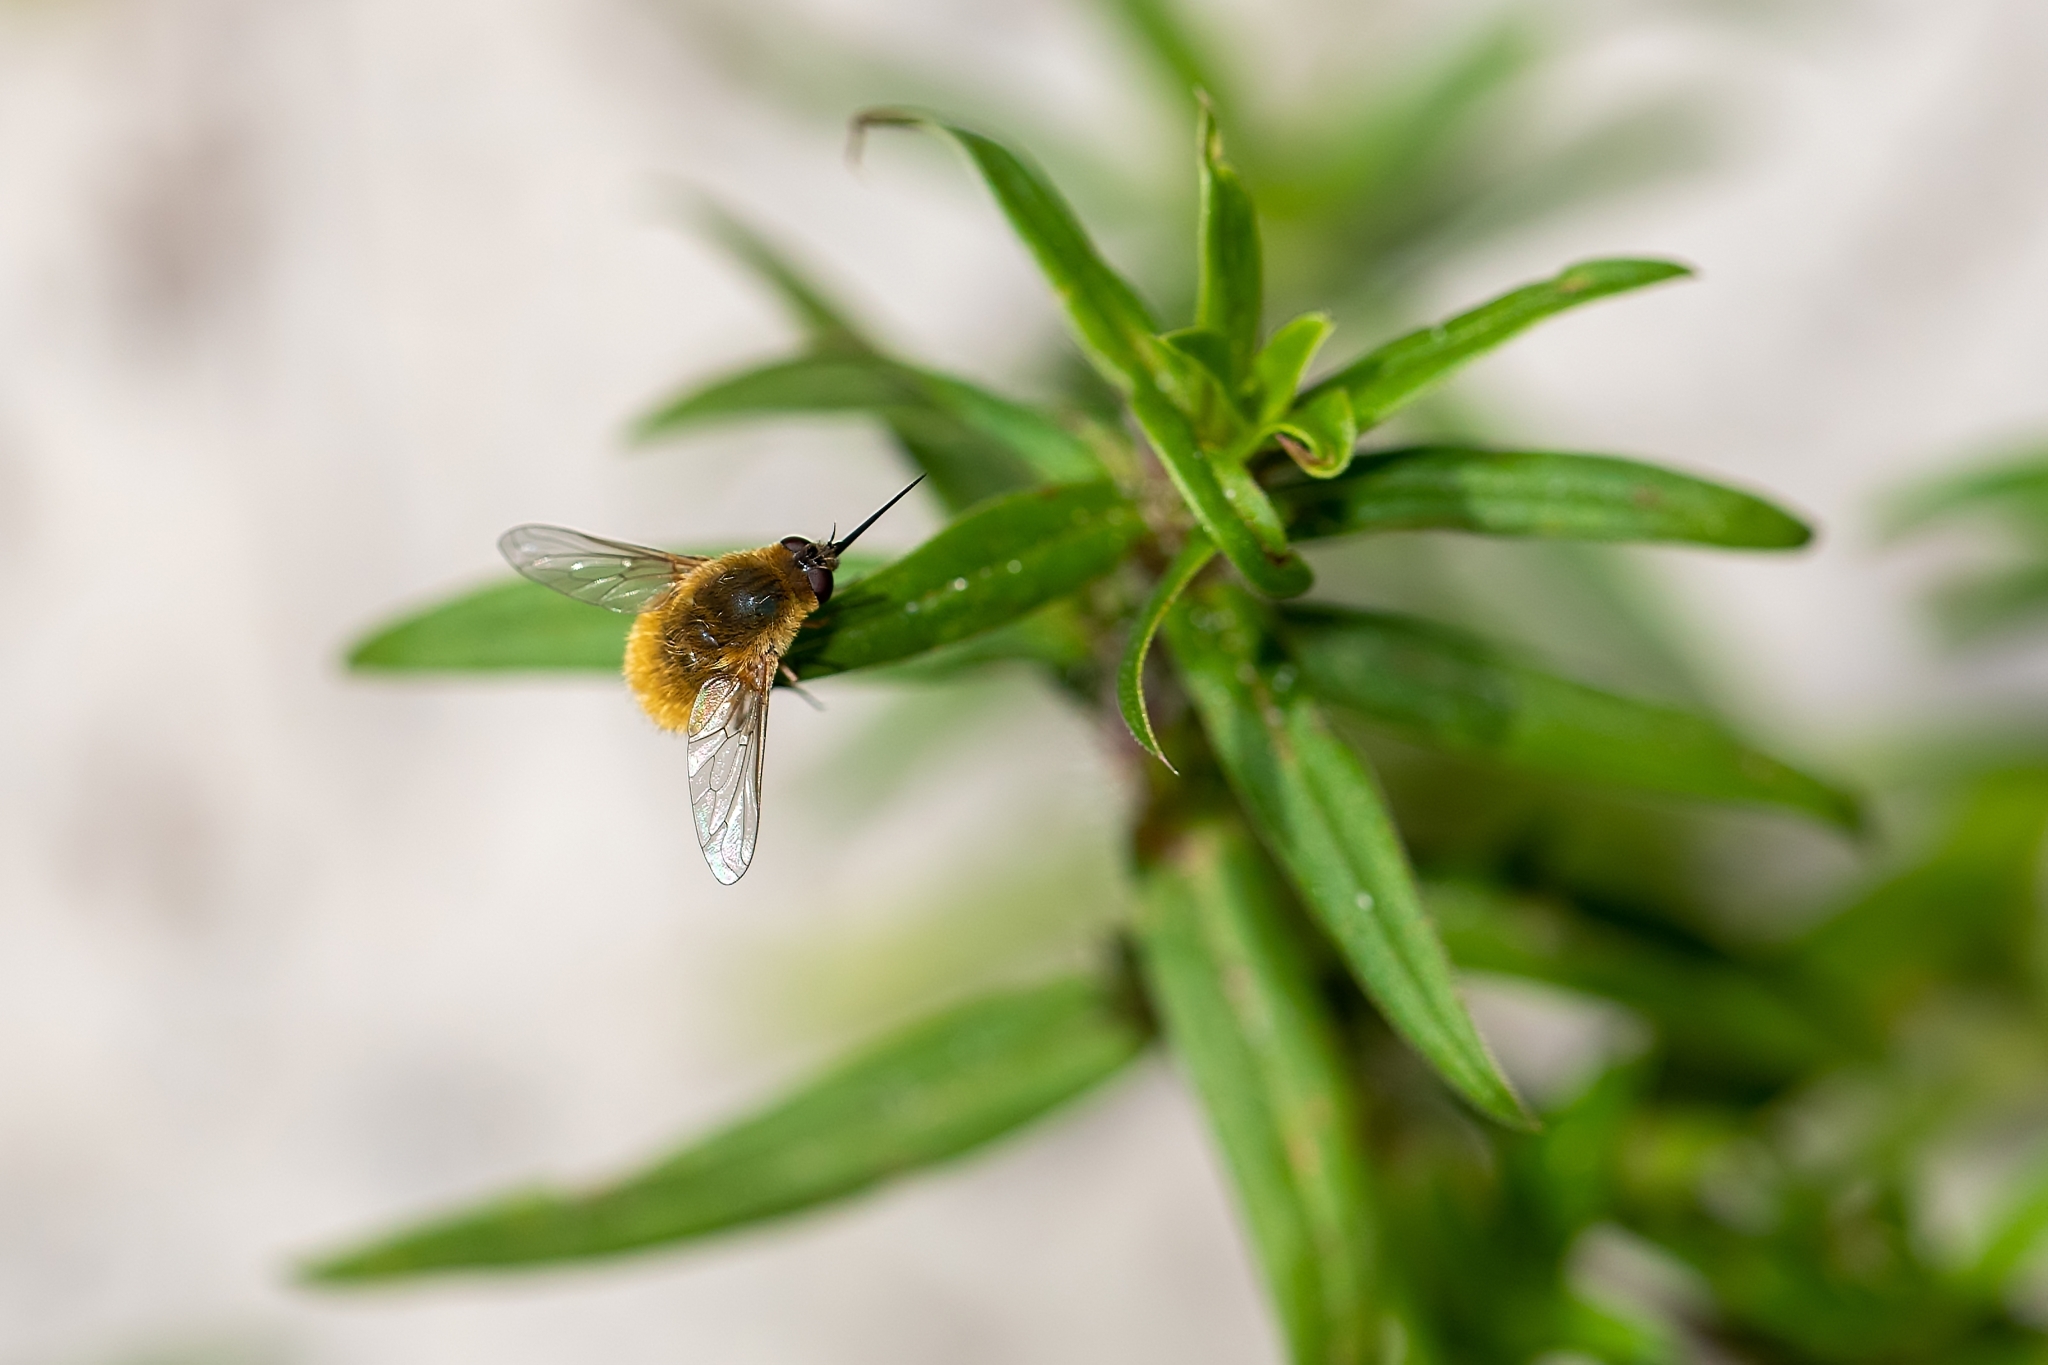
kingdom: Animalia
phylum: Arthropoda
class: Insecta
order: Diptera
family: Bombyliidae
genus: Systoechus
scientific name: Systoechus solitus
